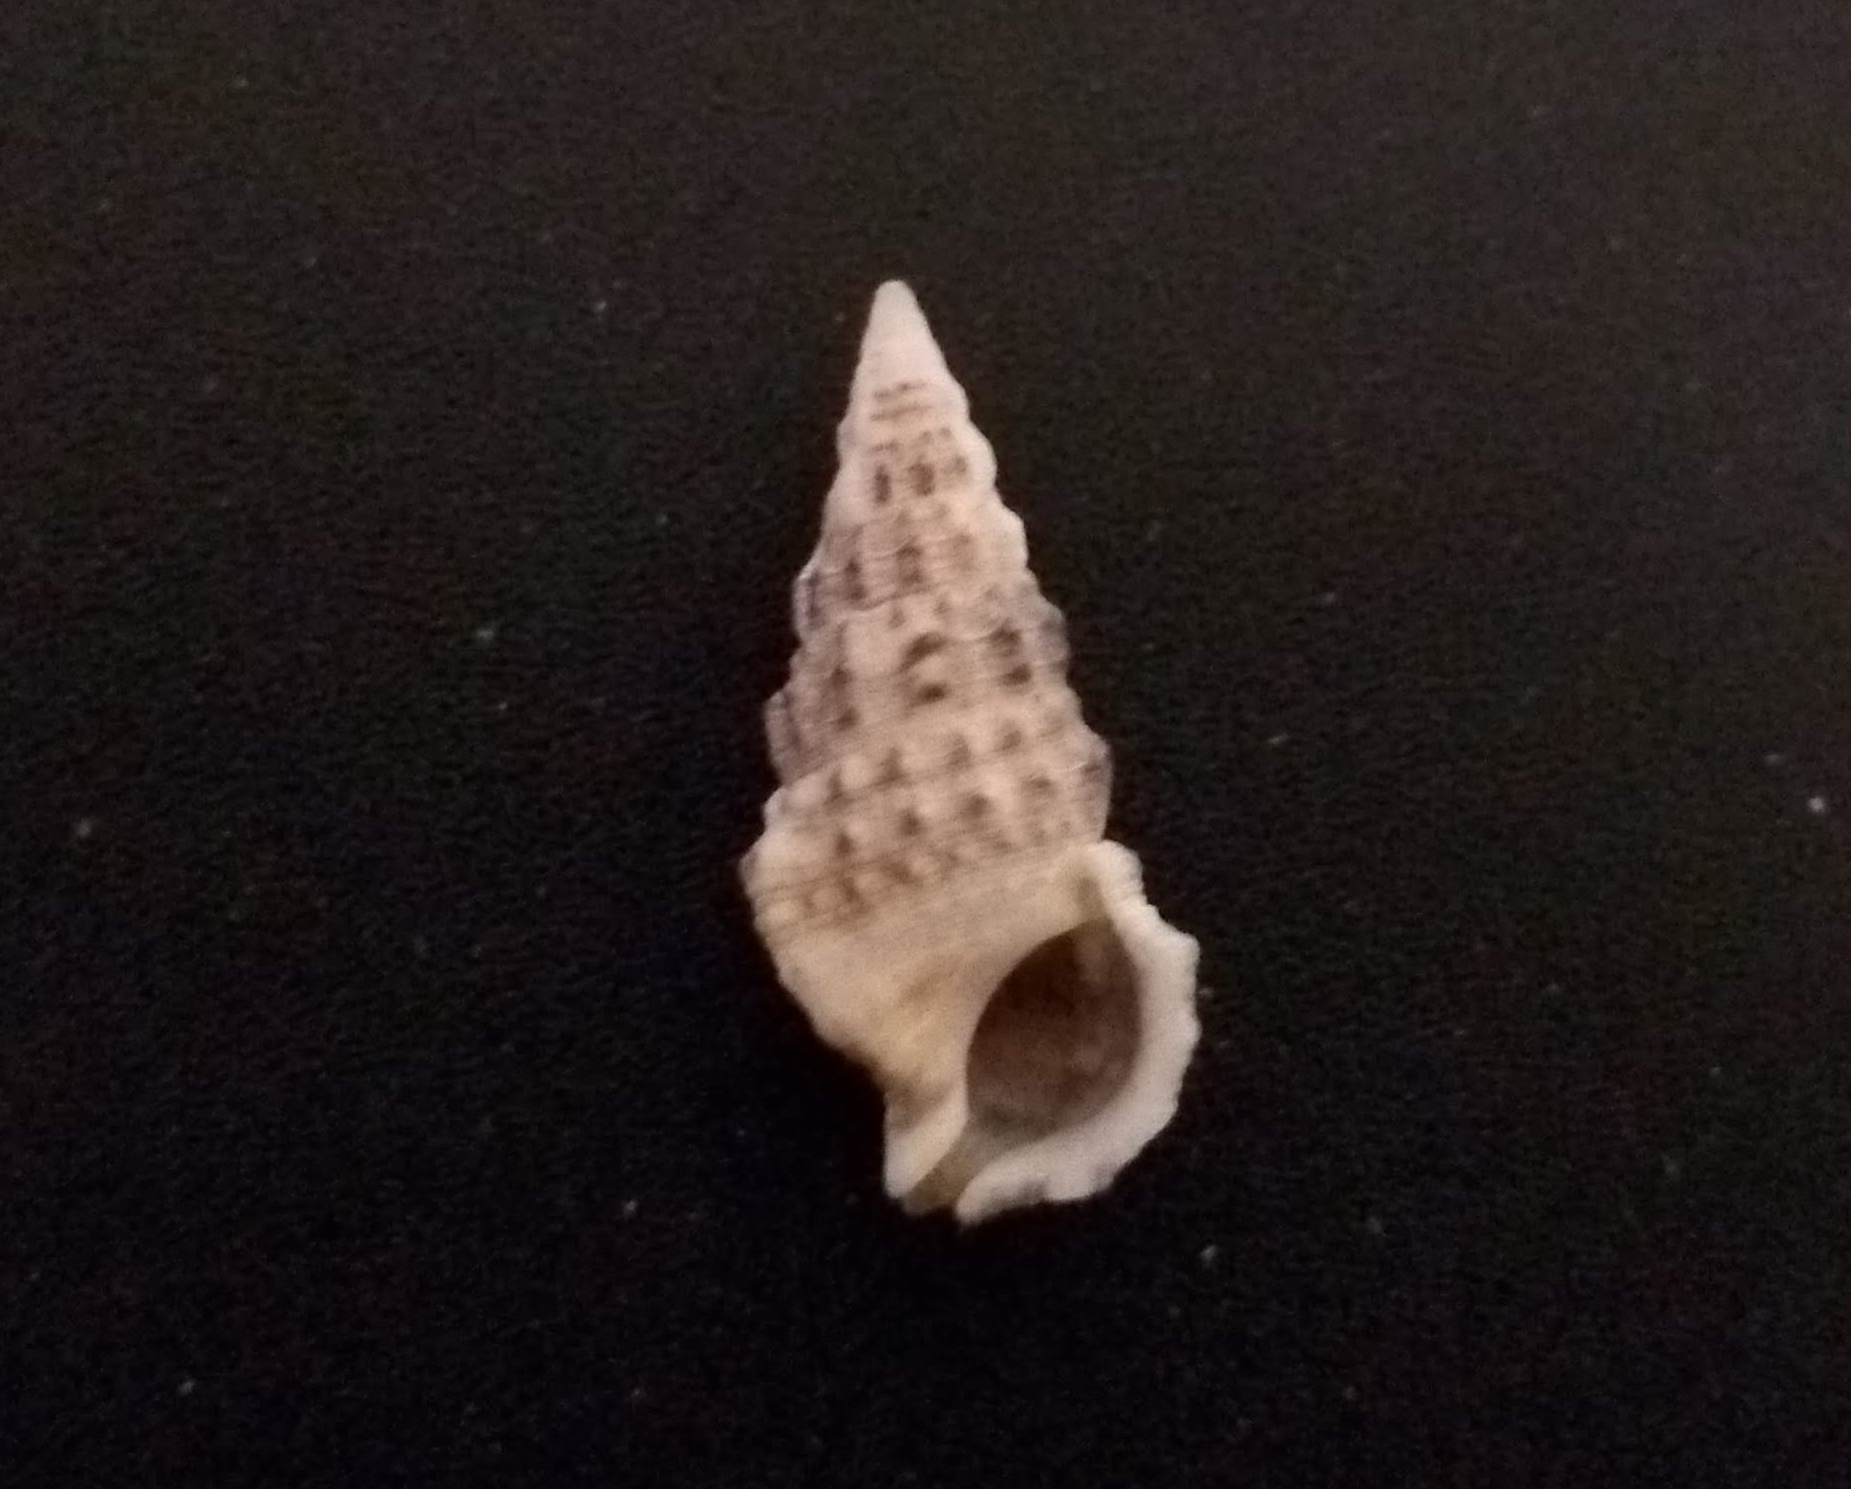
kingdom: Animalia
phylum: Mollusca
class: Gastropoda
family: Cerithiidae
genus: Cerithium
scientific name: Cerithium atratum
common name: Dark cerith
